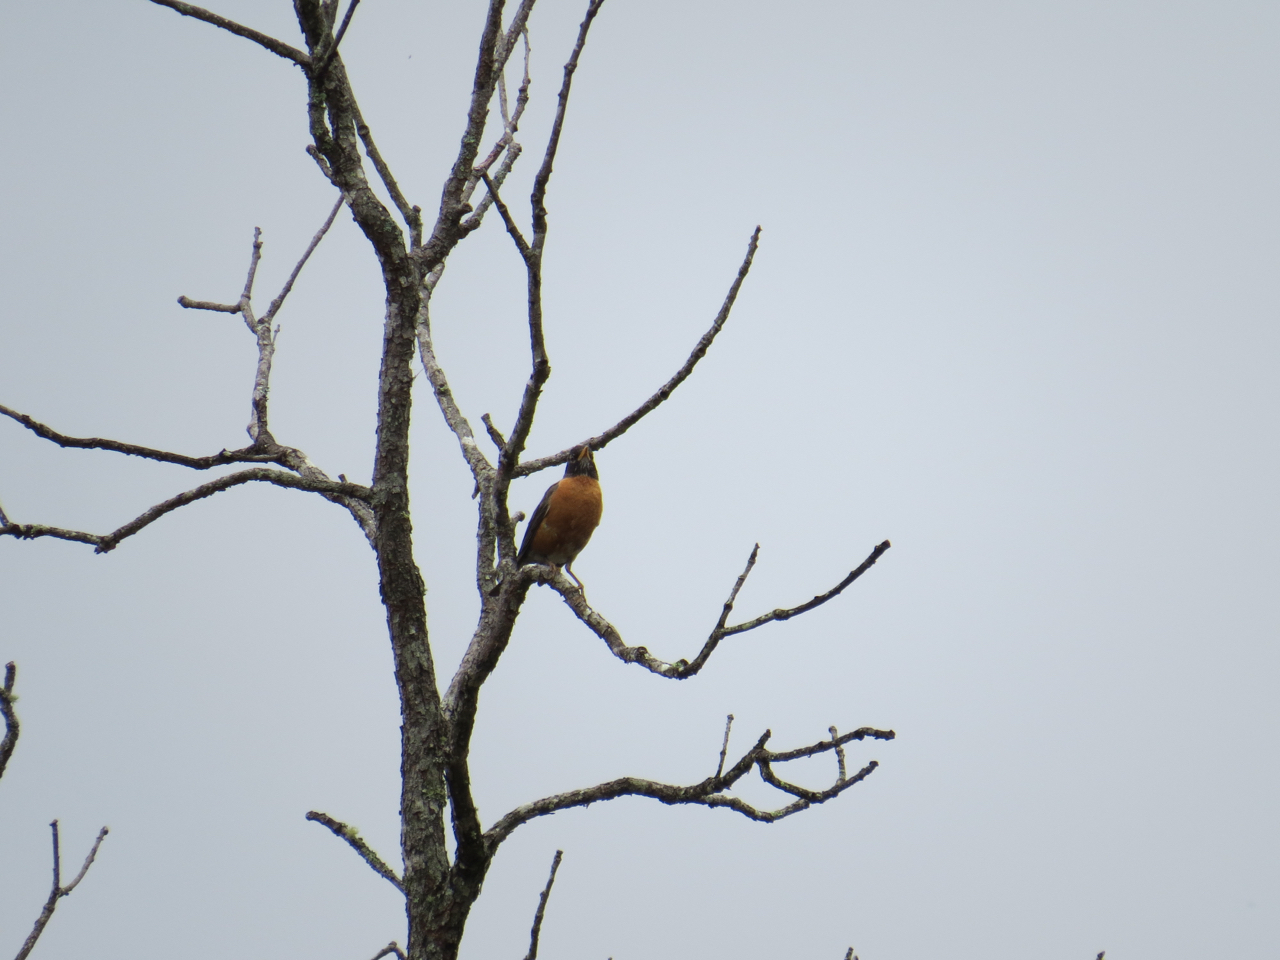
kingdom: Animalia
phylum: Chordata
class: Aves
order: Passeriformes
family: Turdidae
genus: Turdus
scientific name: Turdus migratorius
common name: American robin
